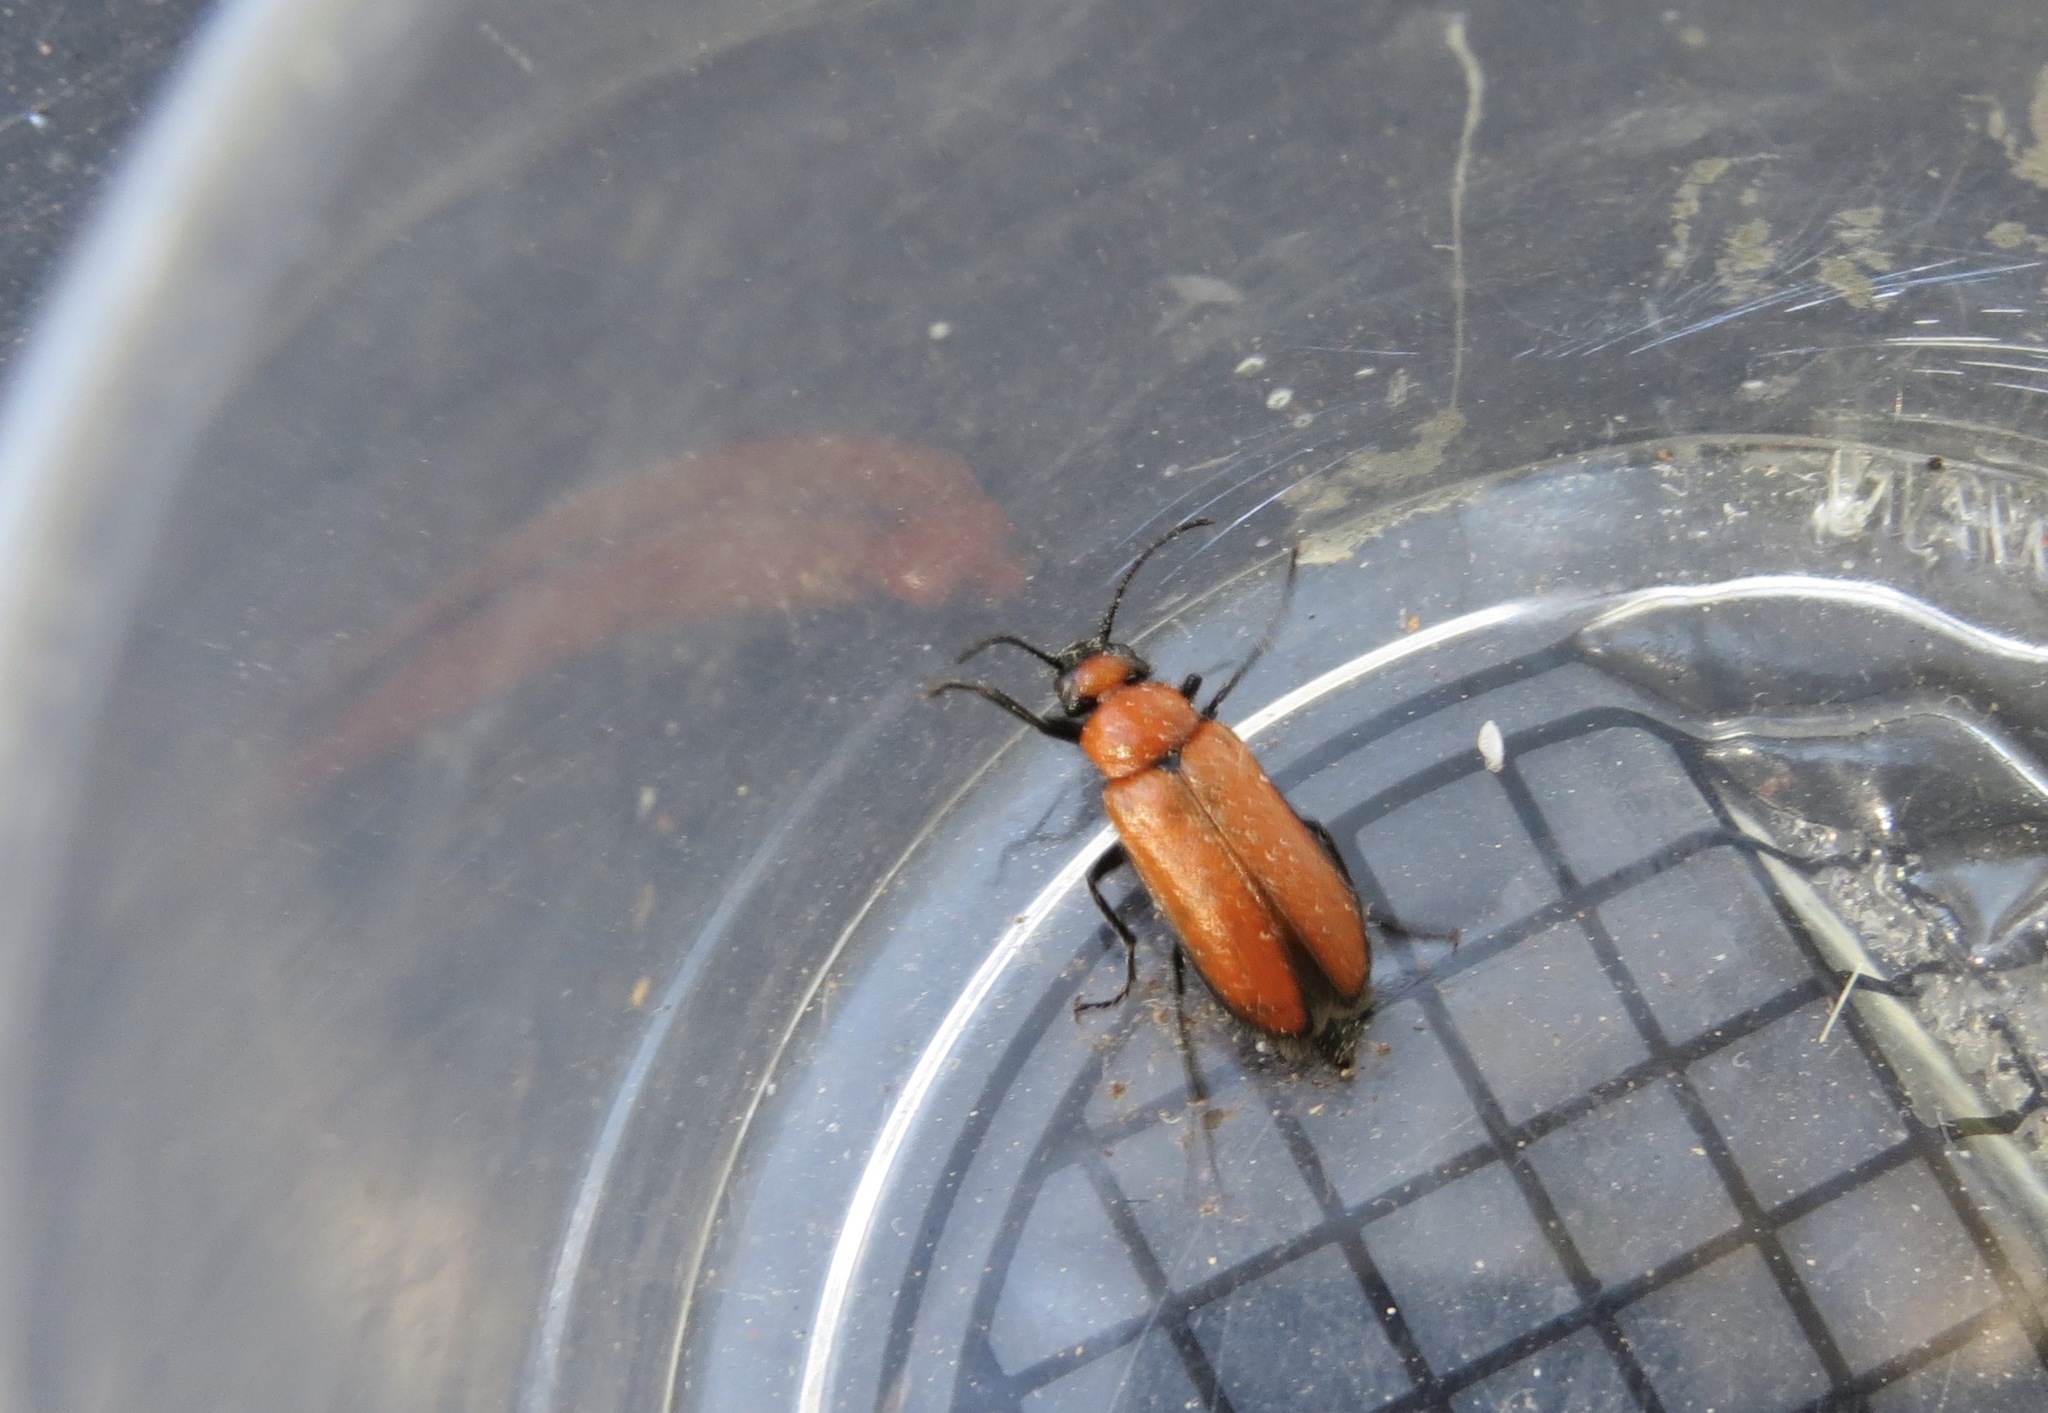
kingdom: Animalia
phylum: Arthropoda
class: Insecta
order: Coleoptera
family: Meloidae
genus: Nemognatha
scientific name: Nemognatha scutellaris
